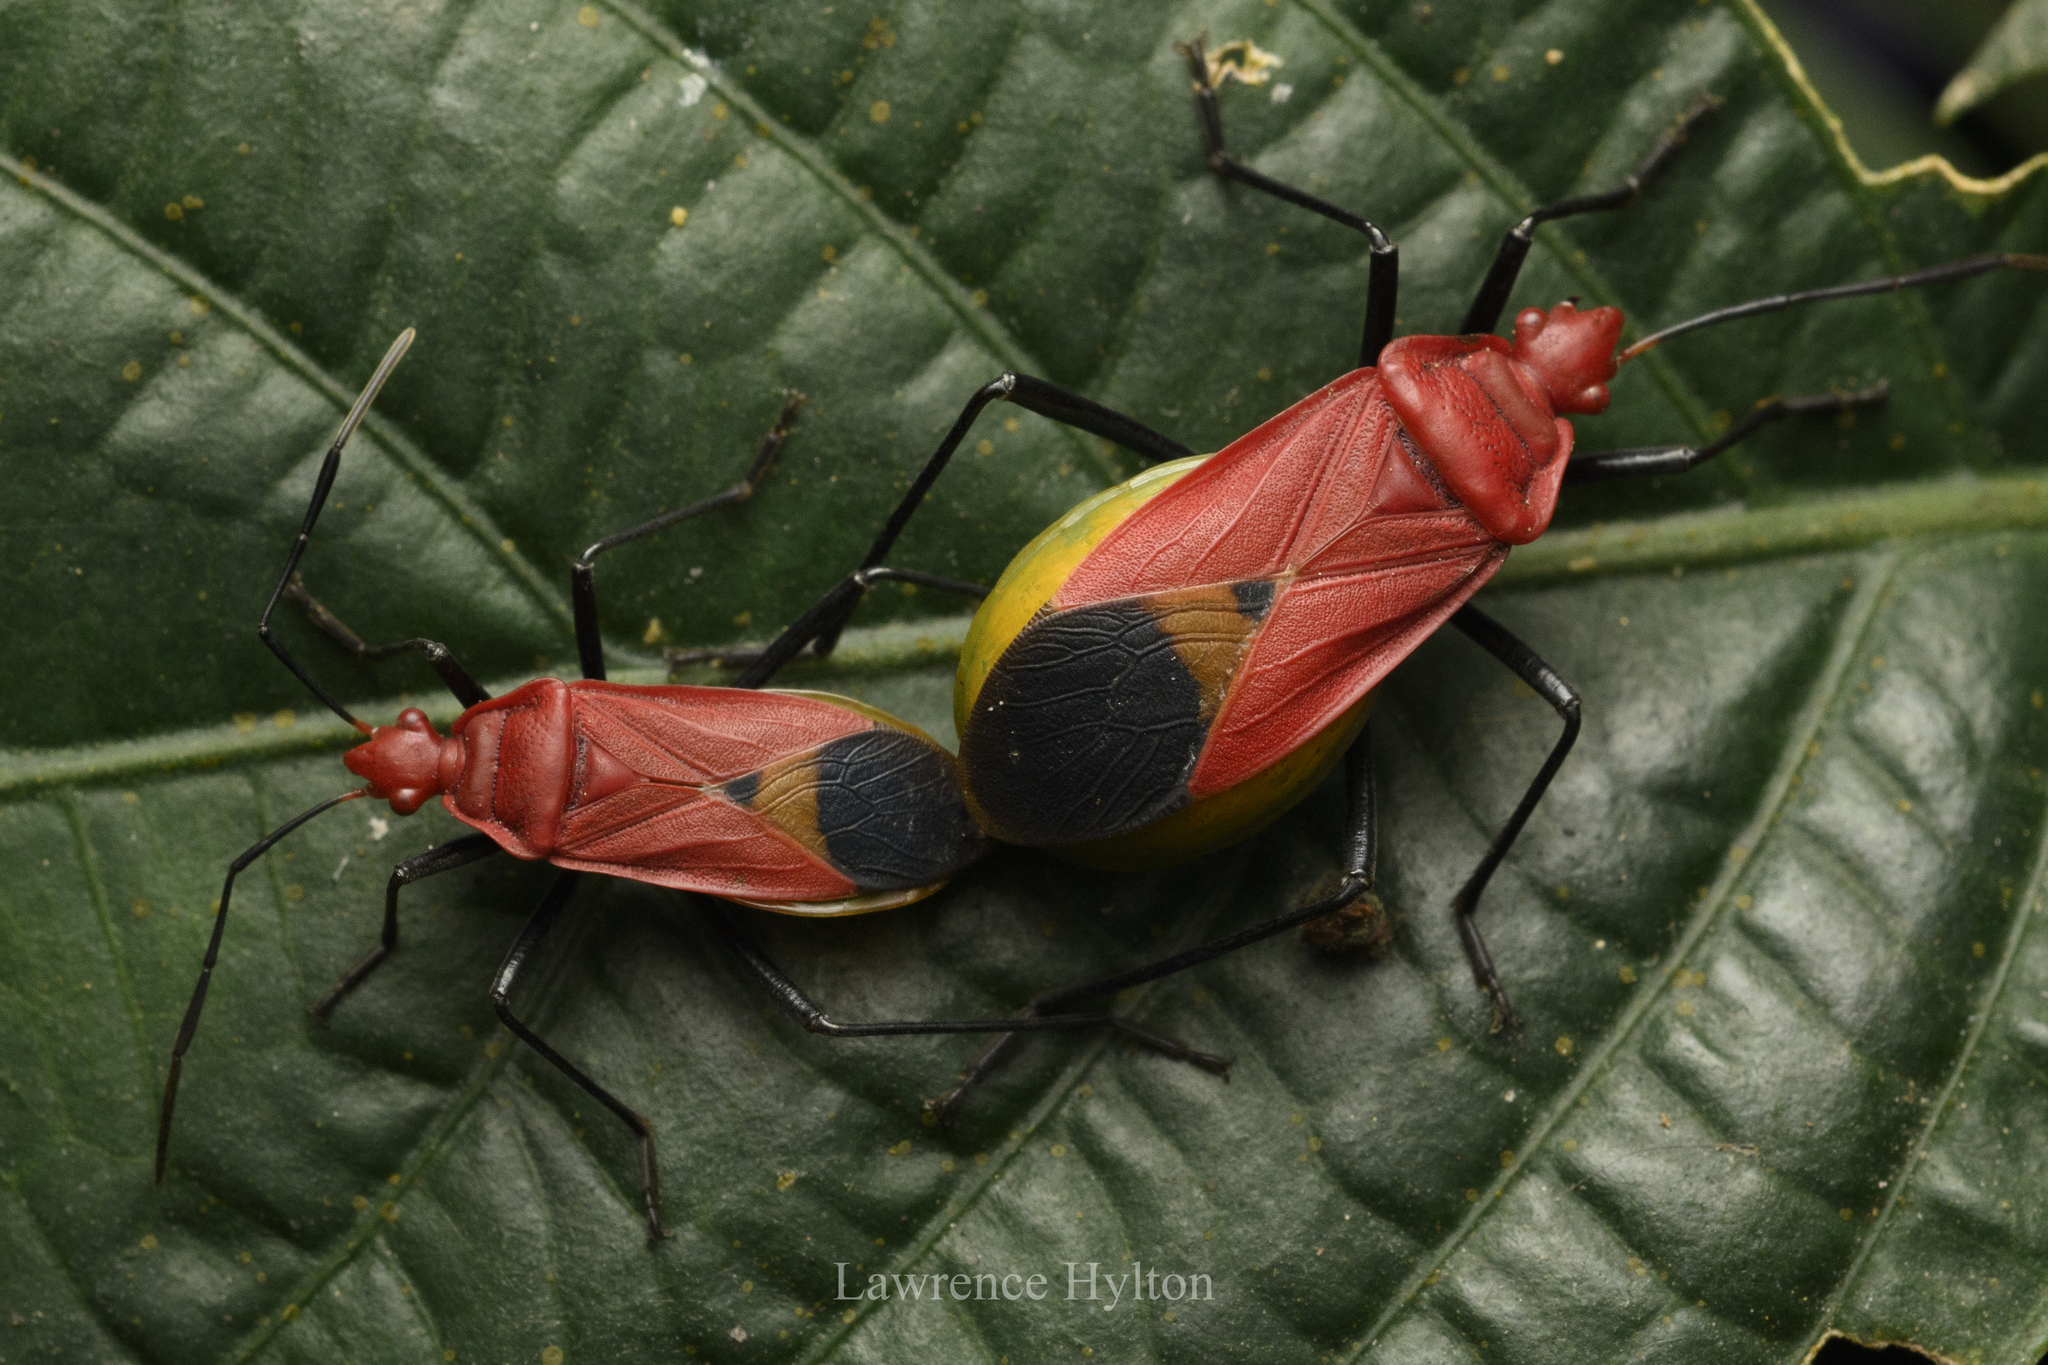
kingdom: Animalia
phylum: Arthropoda
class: Insecta
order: Hemiptera
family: Pyrrhocoridae
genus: Dindymus
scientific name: Dindymus
